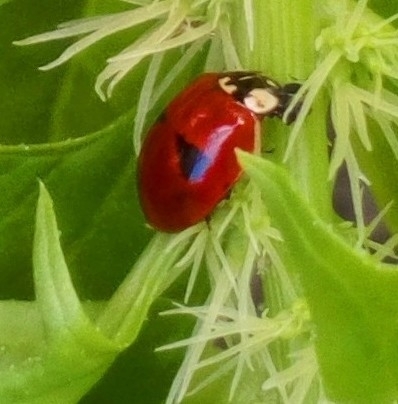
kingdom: Animalia
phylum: Arthropoda
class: Insecta
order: Coleoptera
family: Coccinellidae
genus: Adalia
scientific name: Adalia bipunctata
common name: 2-spot ladybird
